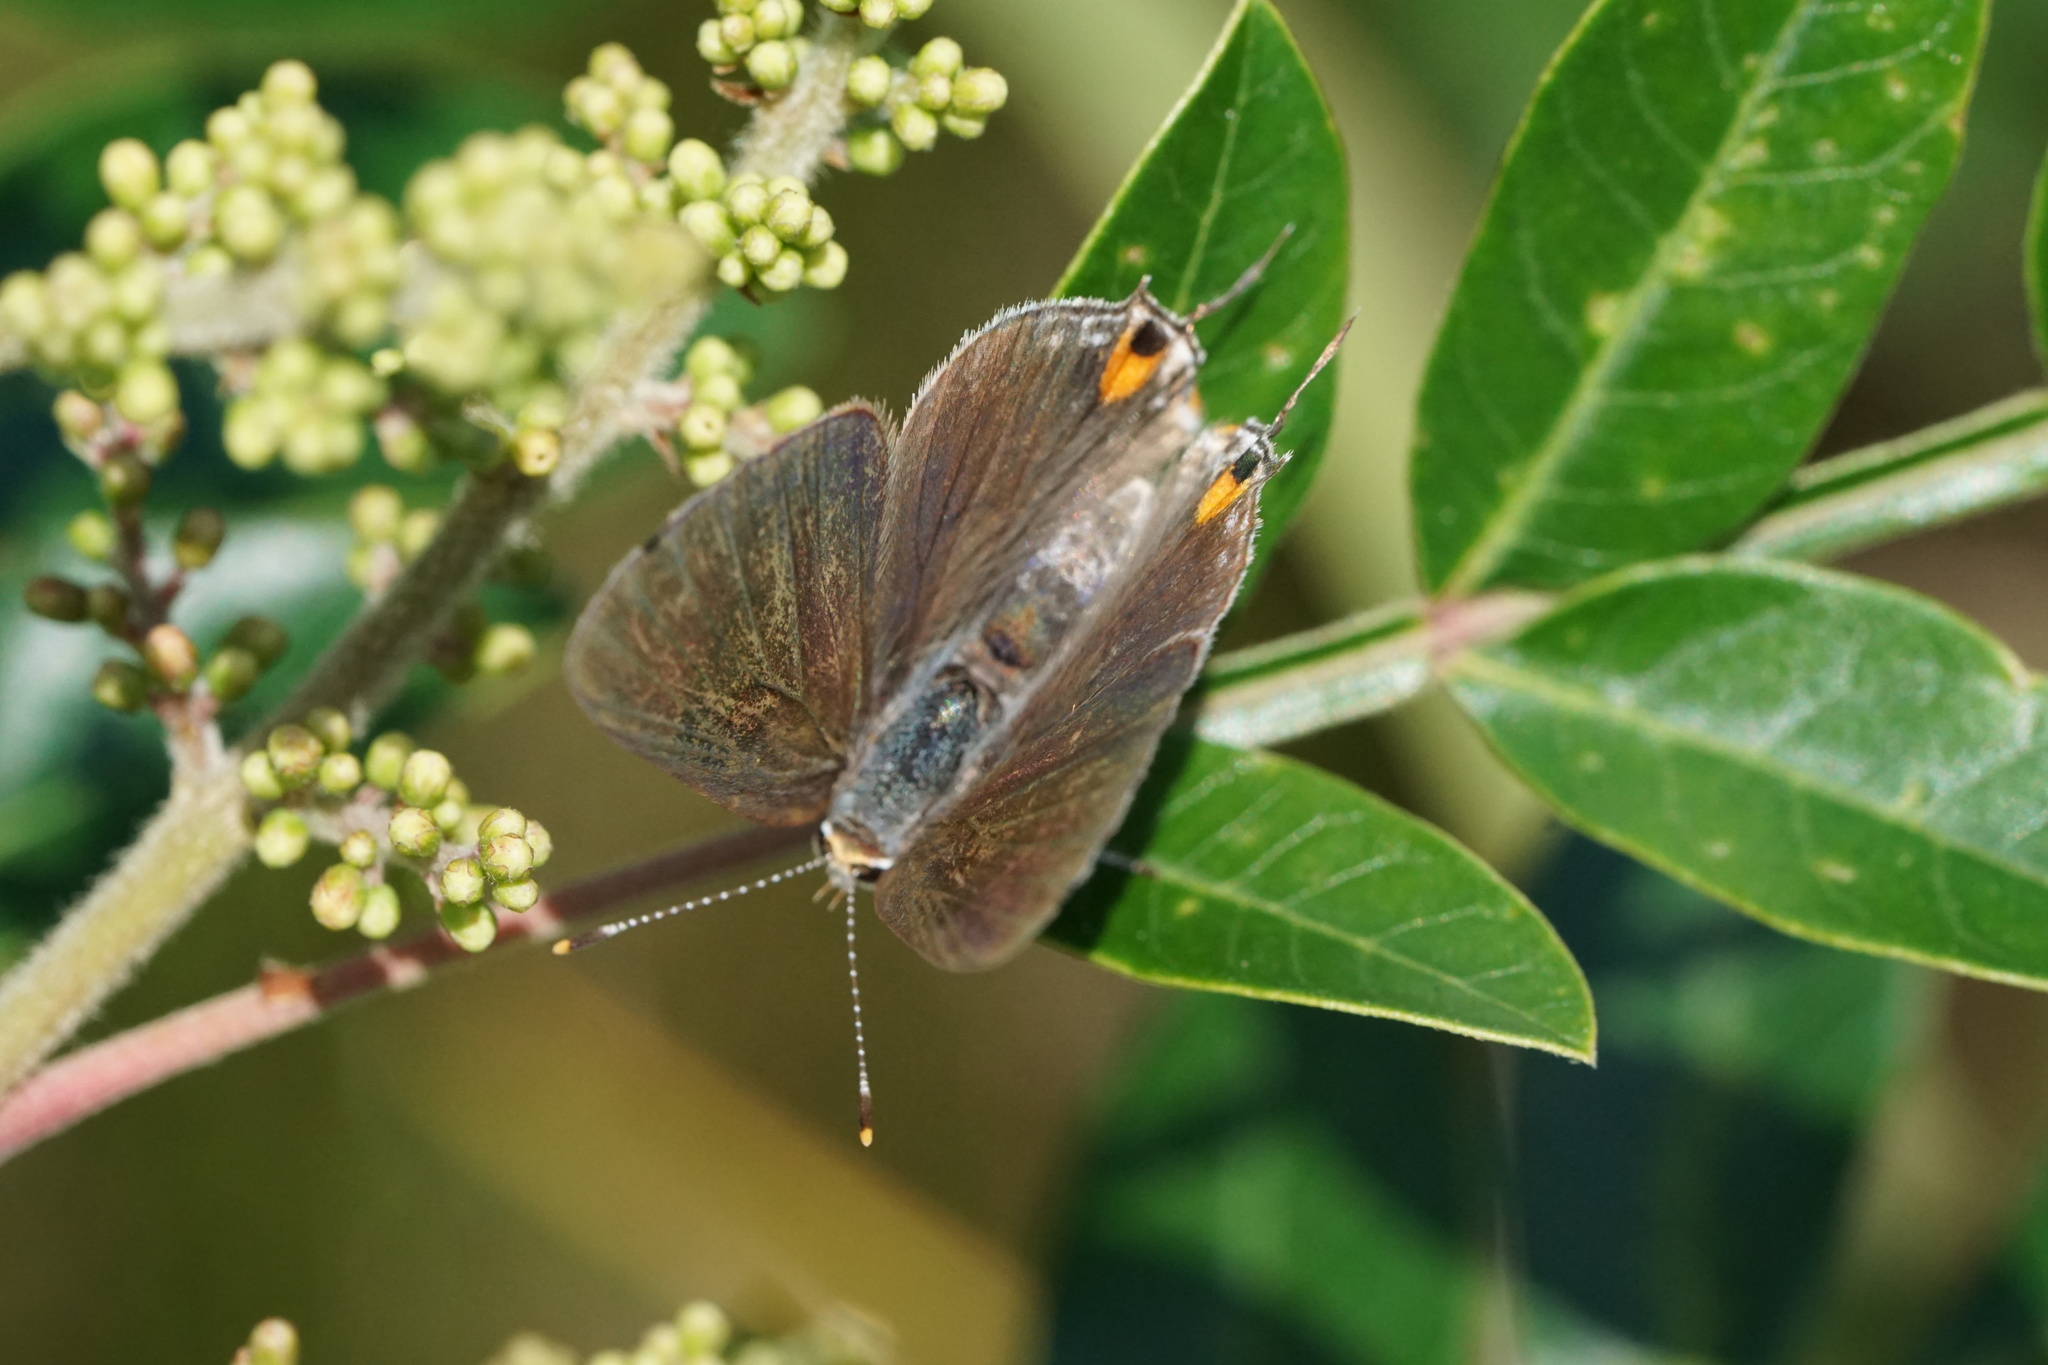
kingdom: Animalia
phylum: Arthropoda
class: Insecta
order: Lepidoptera
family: Lycaenidae
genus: Strymon
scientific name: Strymon melinus
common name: Gray hairstreak
